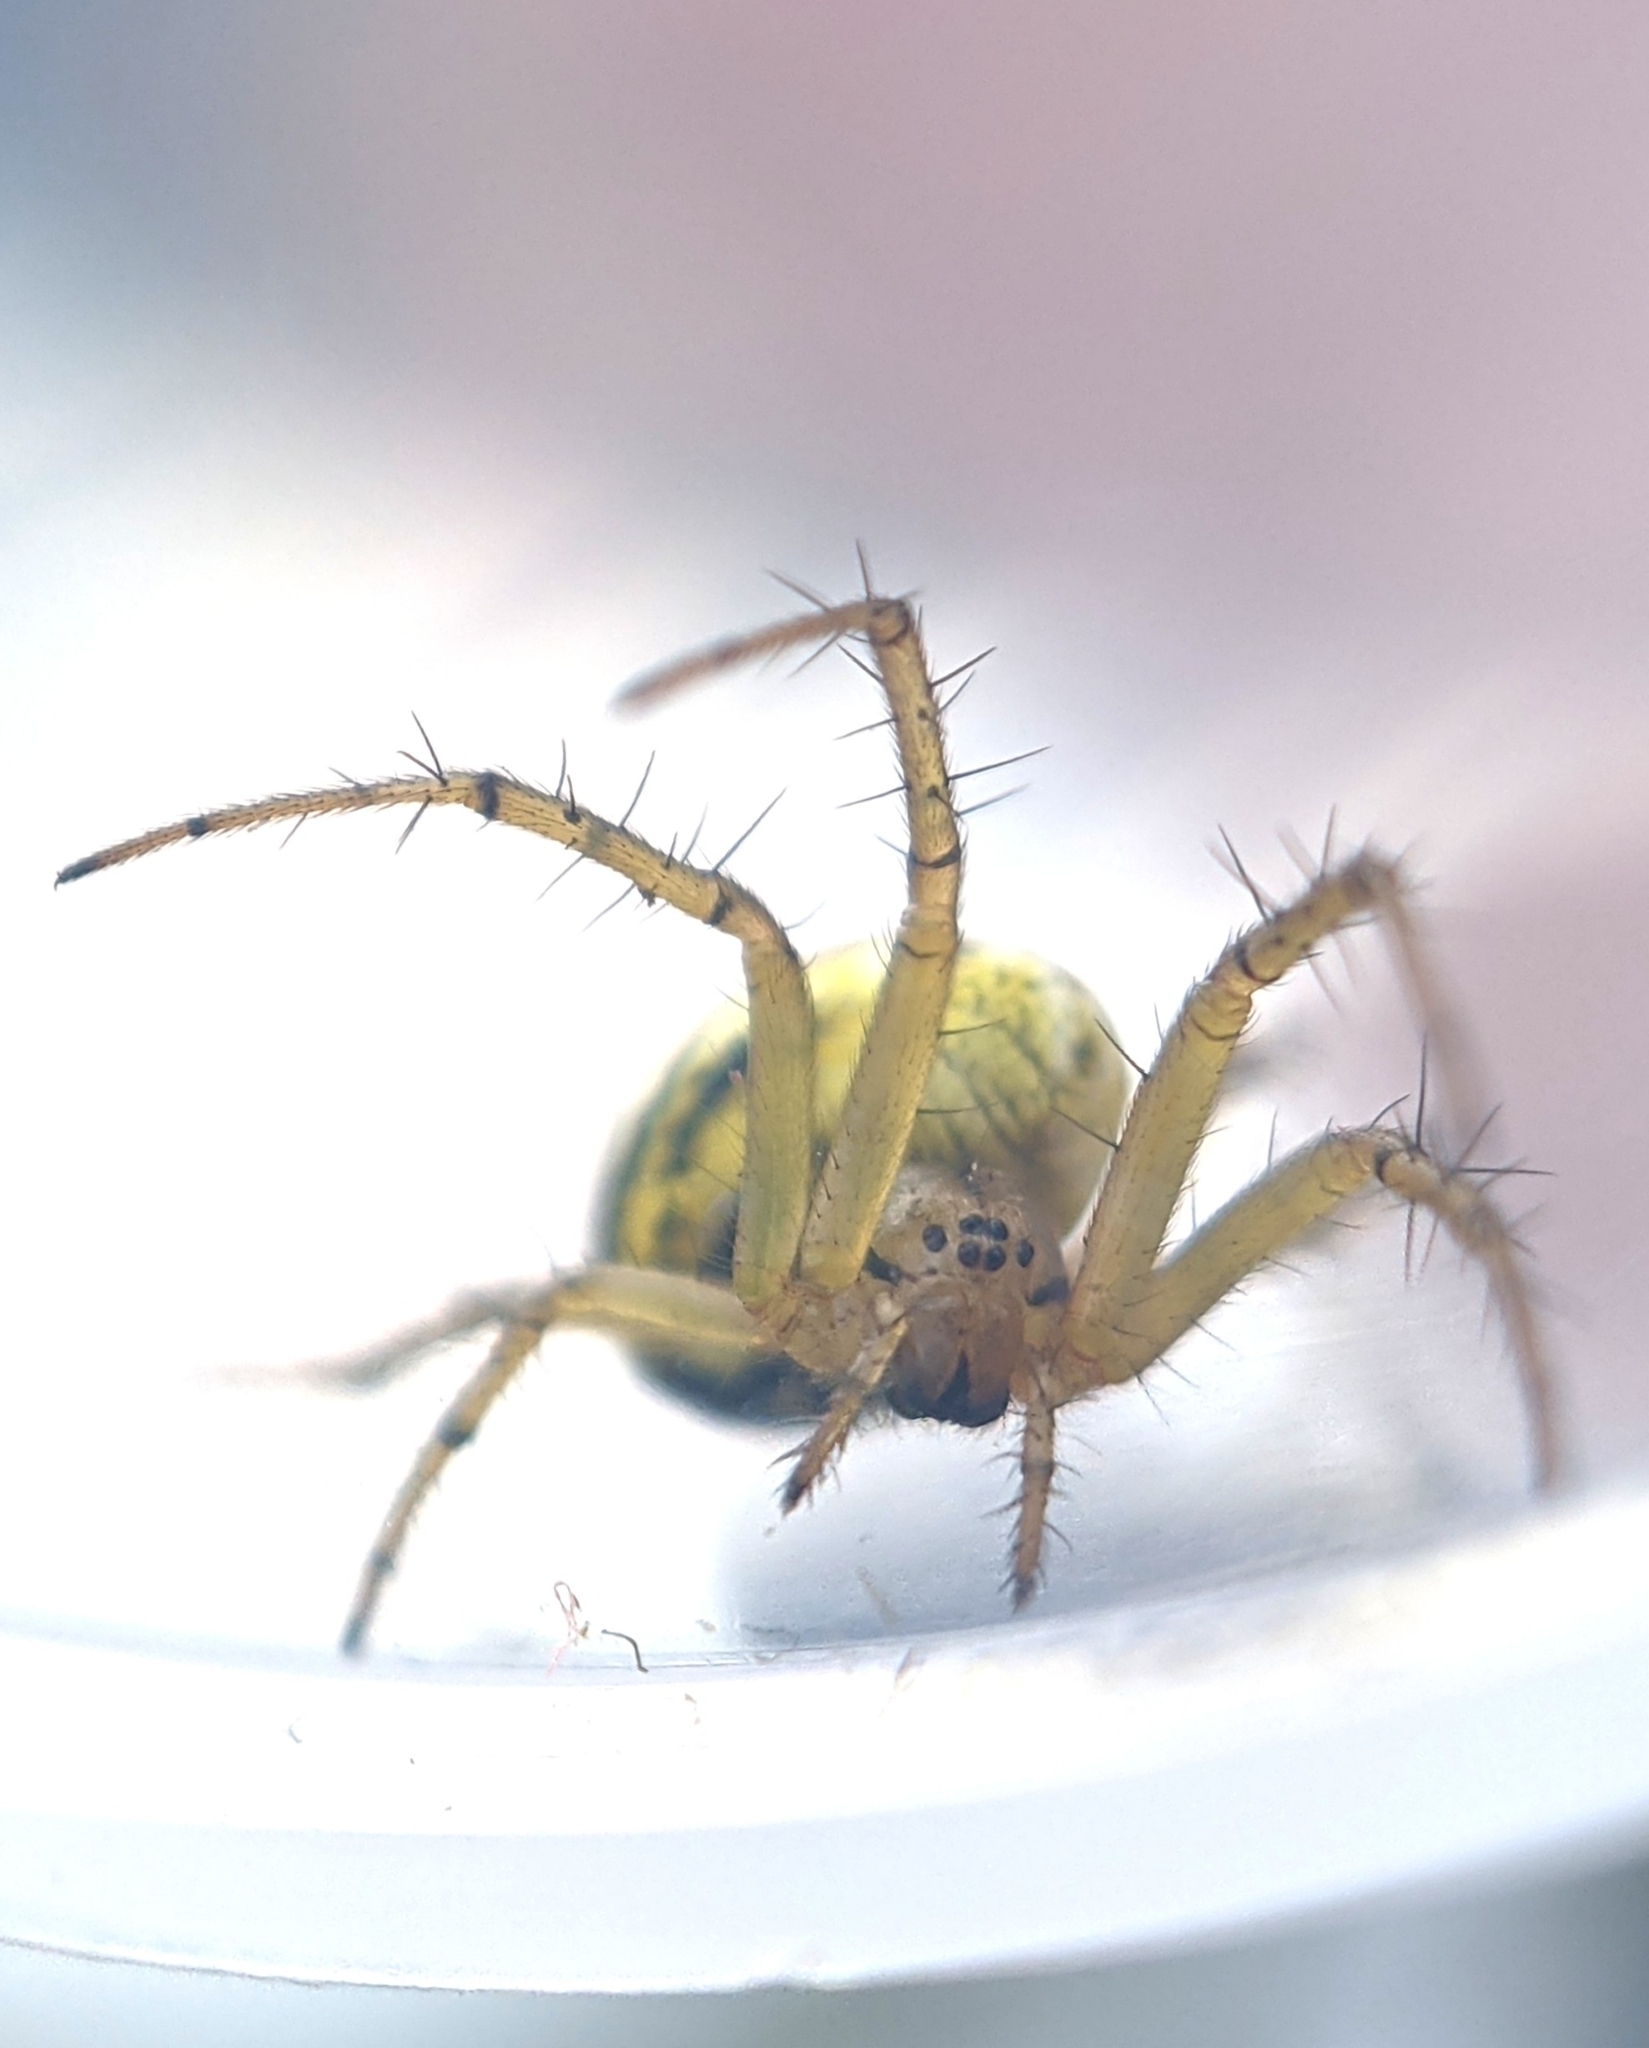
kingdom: Animalia
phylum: Arthropoda
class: Arachnida
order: Araneae
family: Araneidae
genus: Mangora
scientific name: Mangora acalypha
